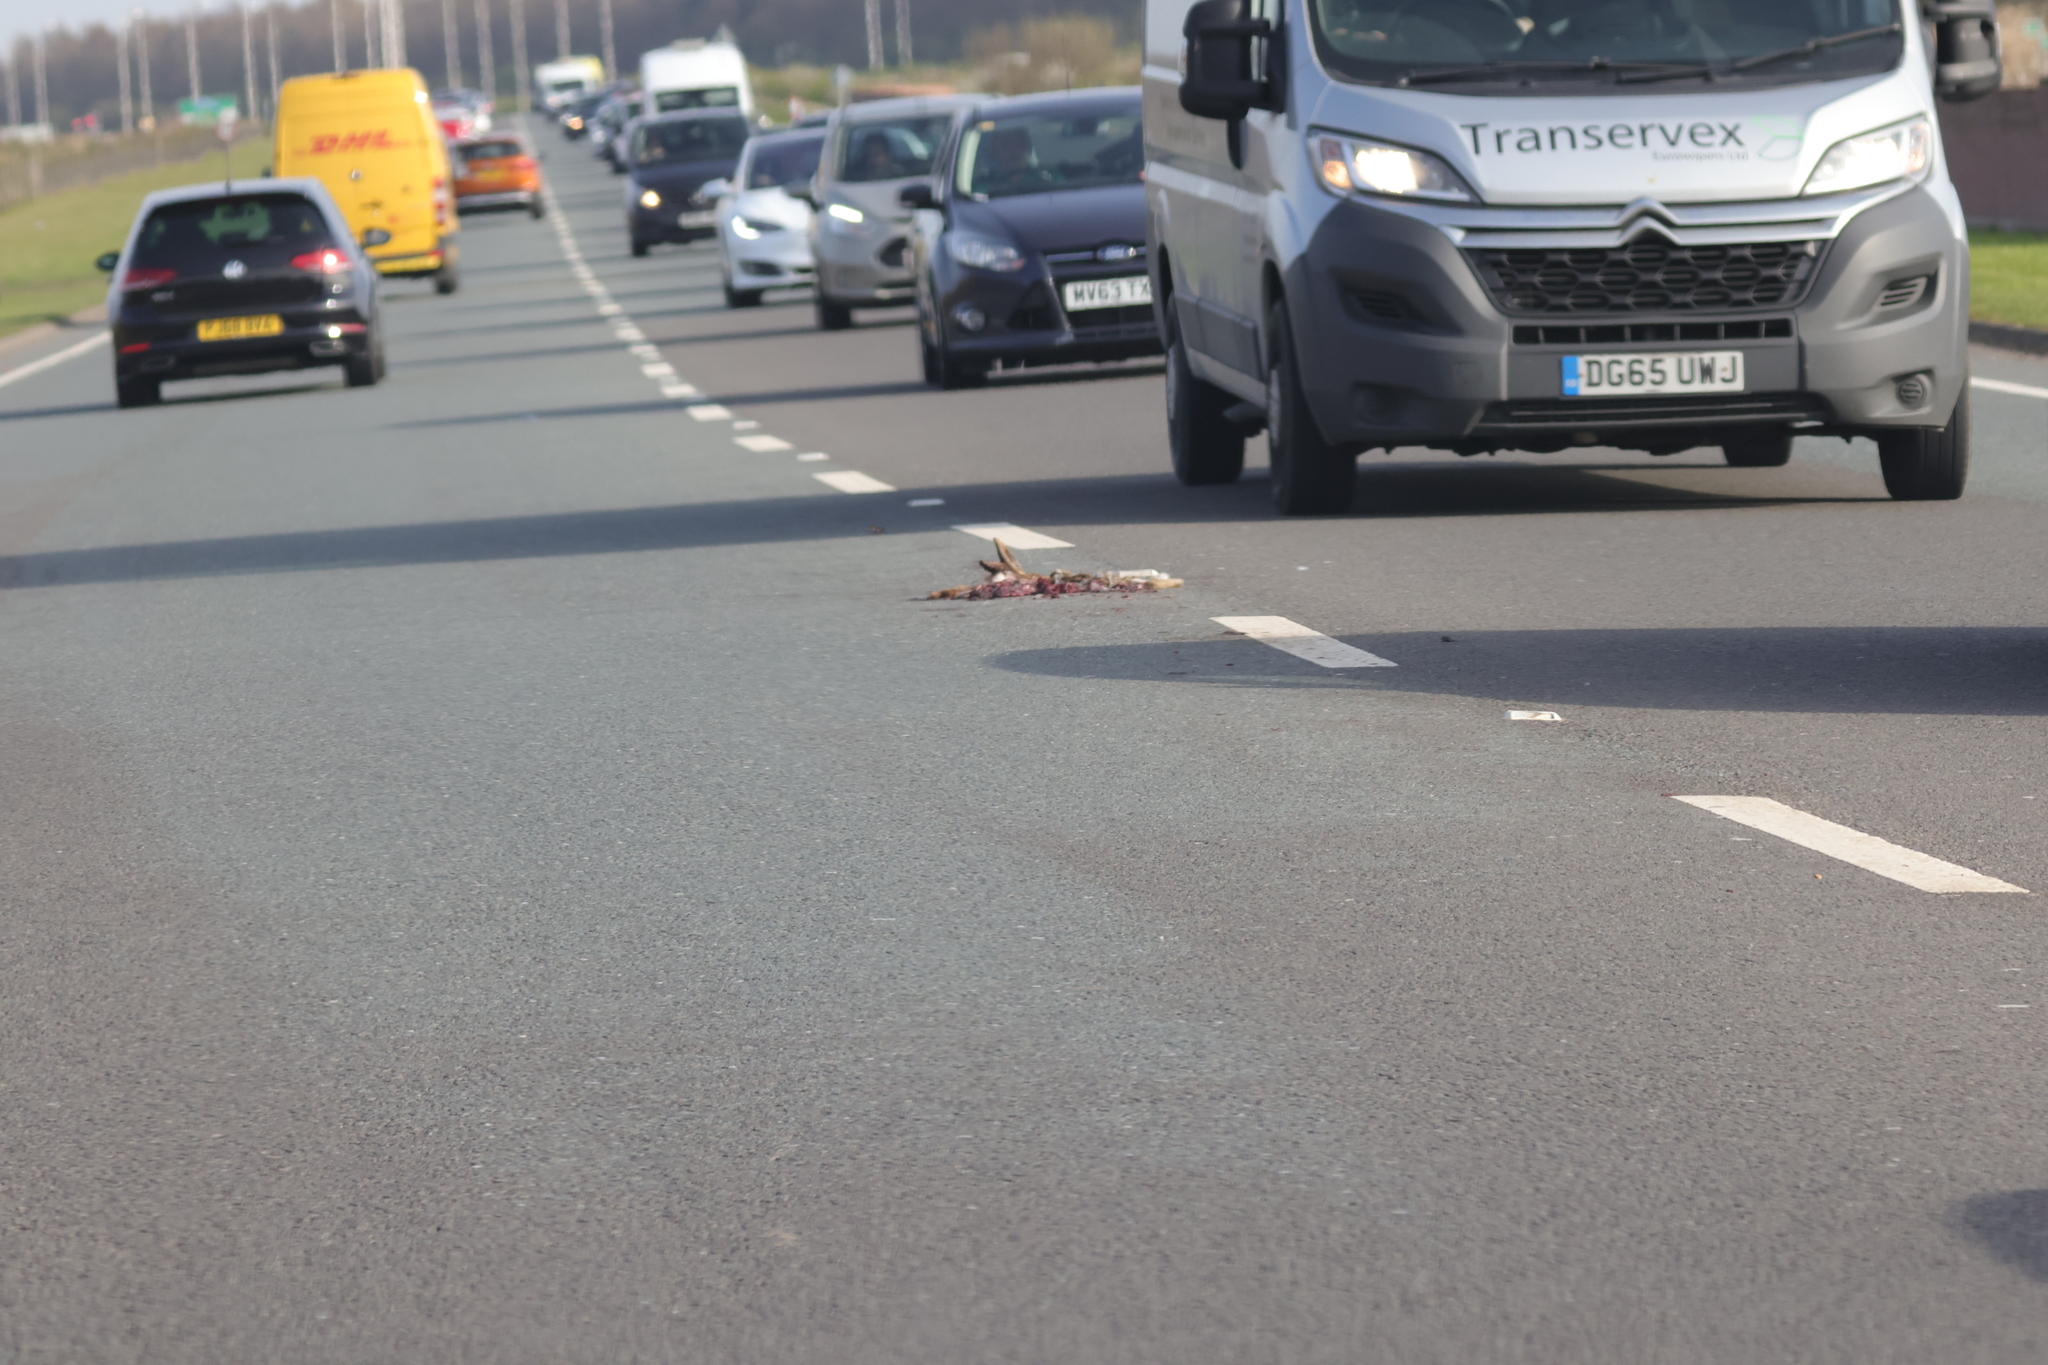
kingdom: Animalia
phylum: Chordata
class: Mammalia
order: Lagomorpha
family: Leporidae
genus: Lepus
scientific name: Lepus europaeus
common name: European hare
